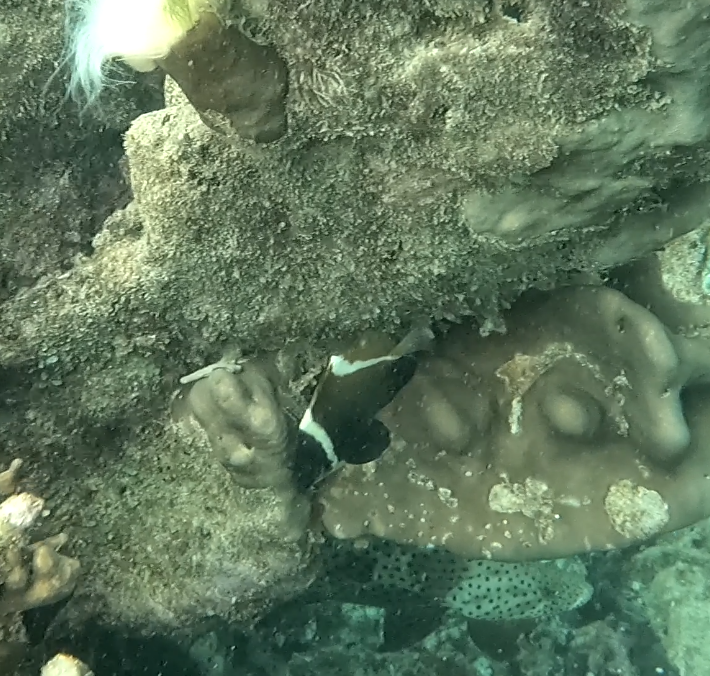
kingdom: Animalia
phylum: Chordata
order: Perciformes
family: Chaetodontidae
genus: Heniochus
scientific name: Heniochus varius
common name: Horned bannerfish
